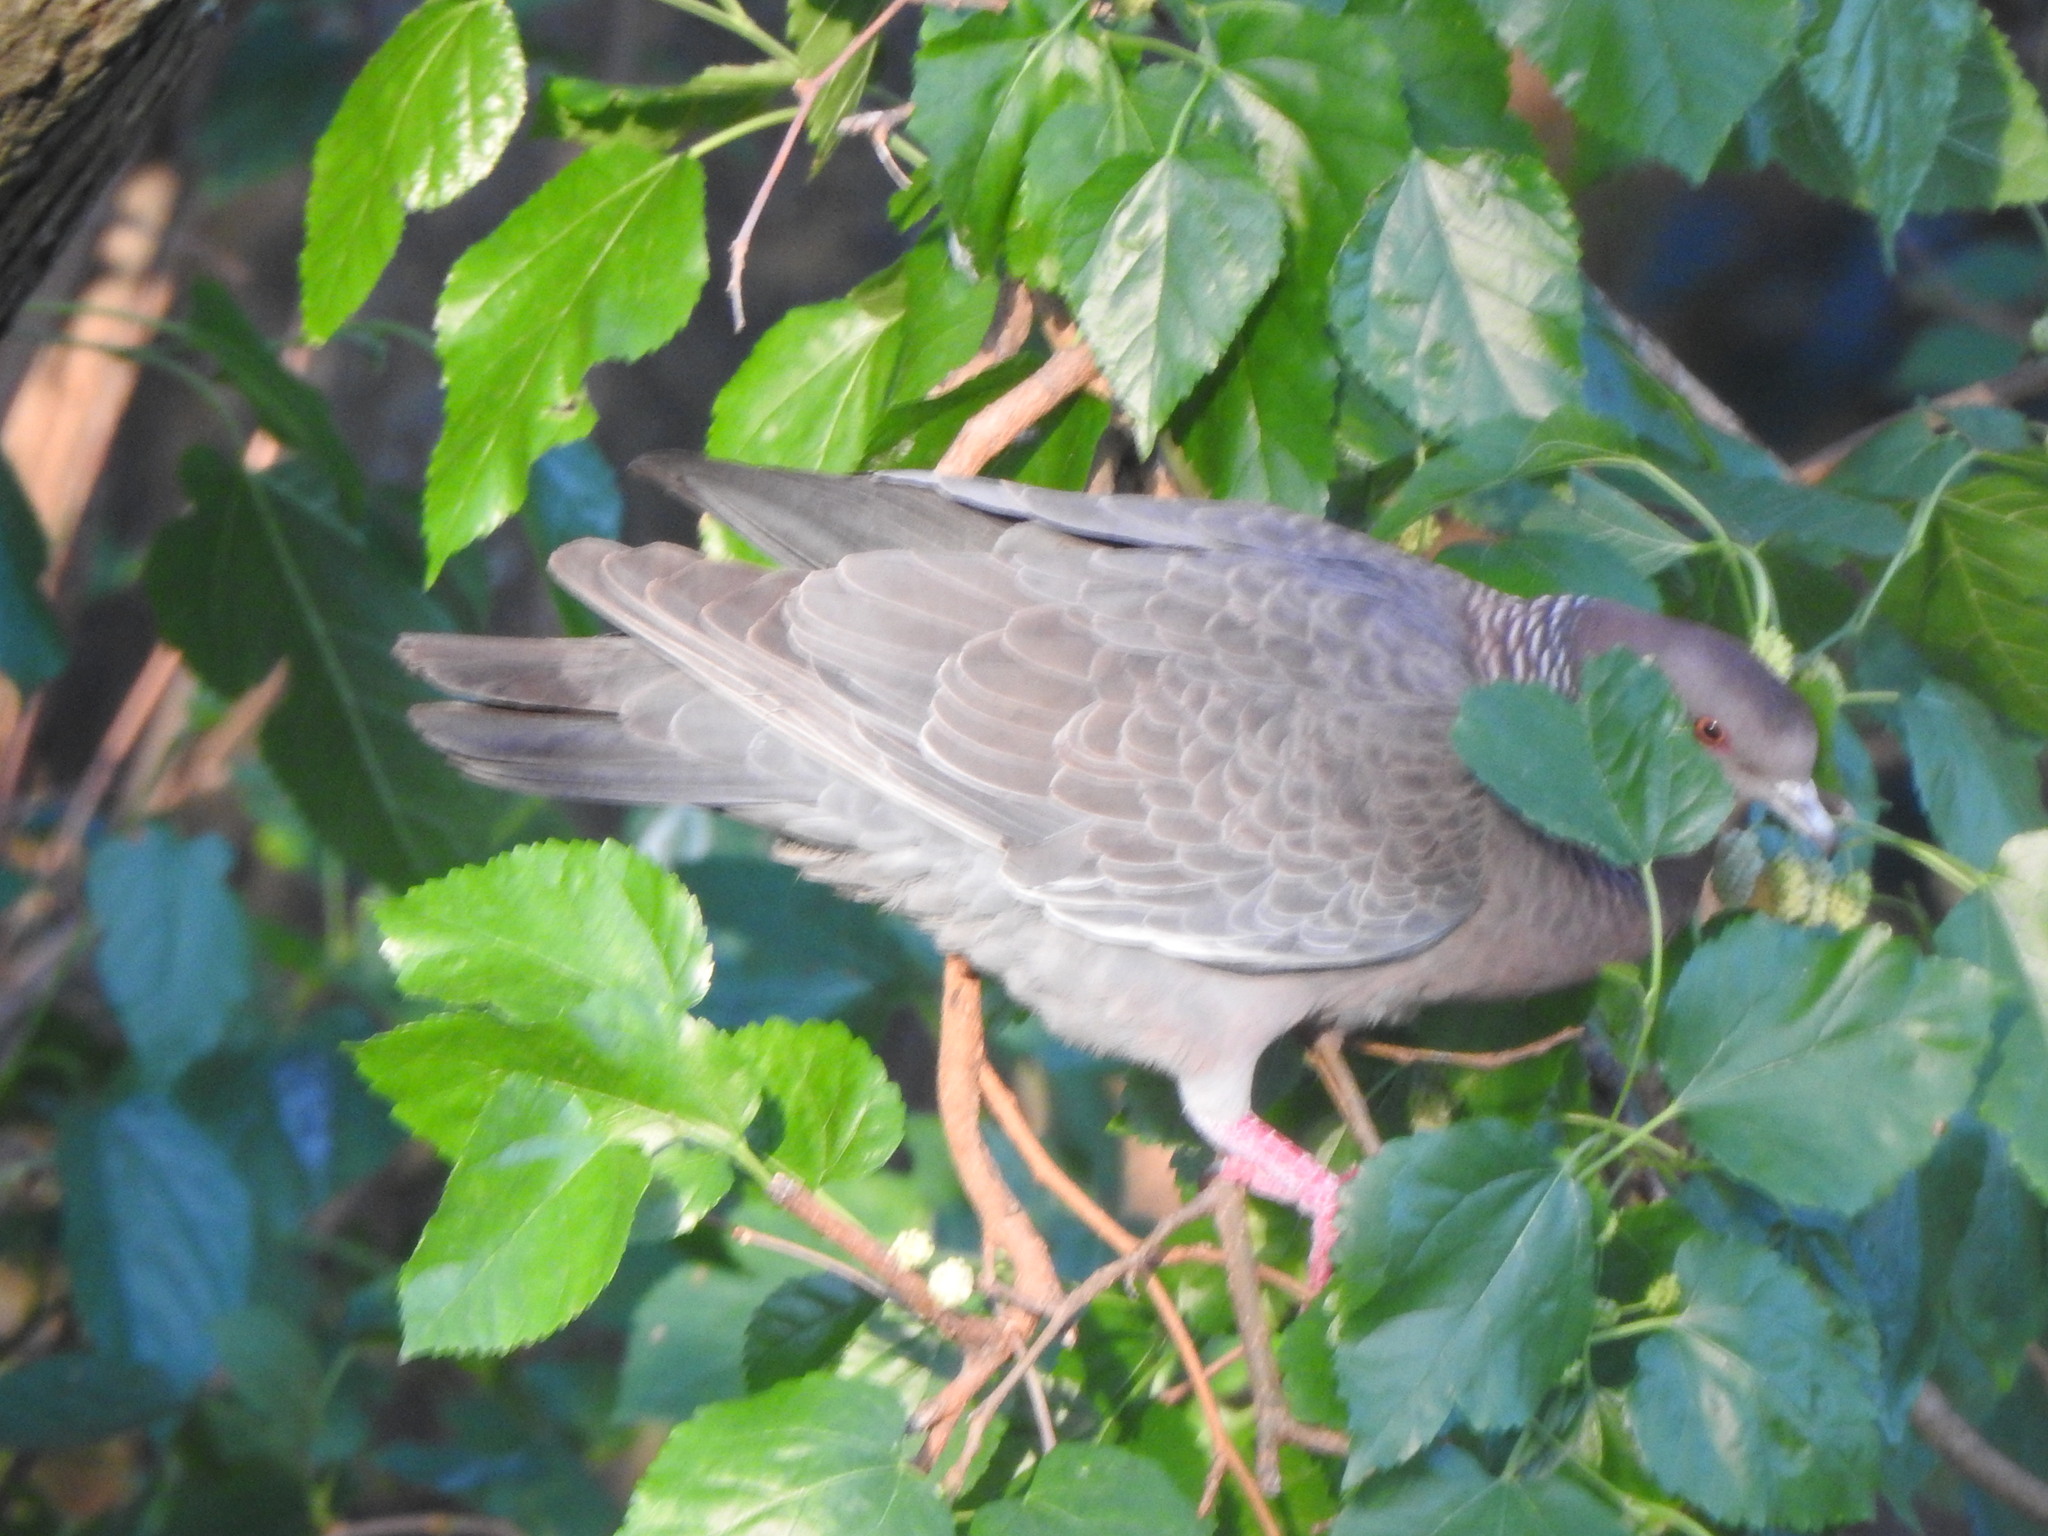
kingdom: Animalia
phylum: Chordata
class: Aves
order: Columbiformes
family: Columbidae
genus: Patagioenas
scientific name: Patagioenas picazuro
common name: Picazuro pigeon
